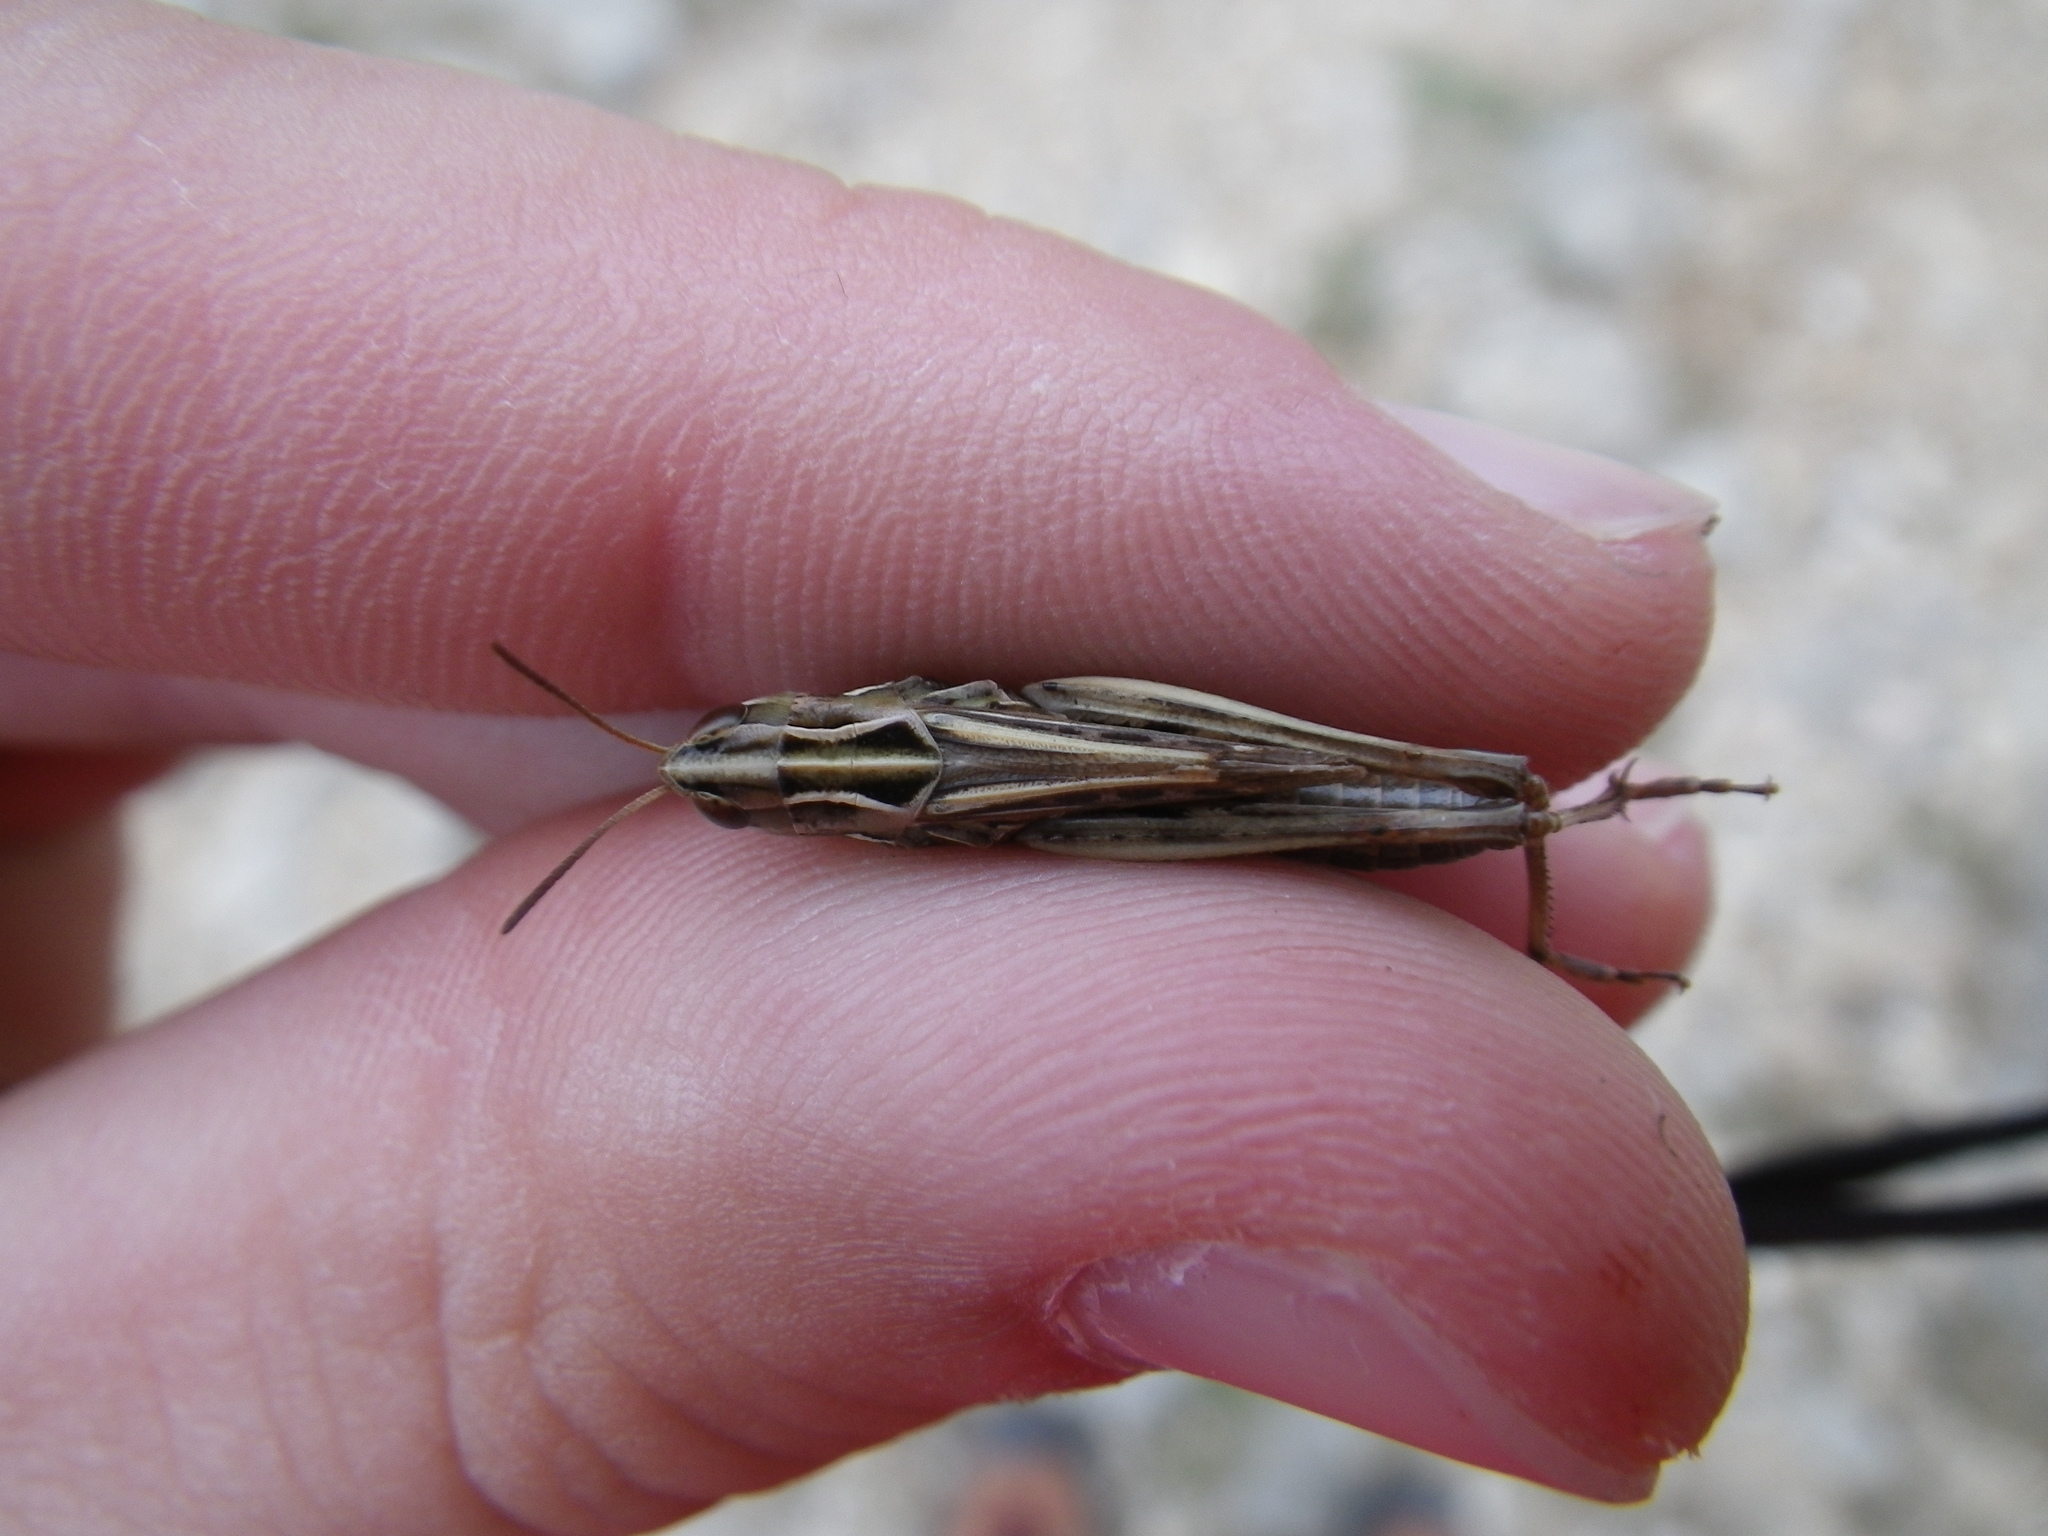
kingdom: Animalia
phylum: Arthropoda
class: Insecta
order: Orthoptera
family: Acrididae
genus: Stenobothrus
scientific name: Stenobothrus stigmaticus
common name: Lesser mottled grasshopper
